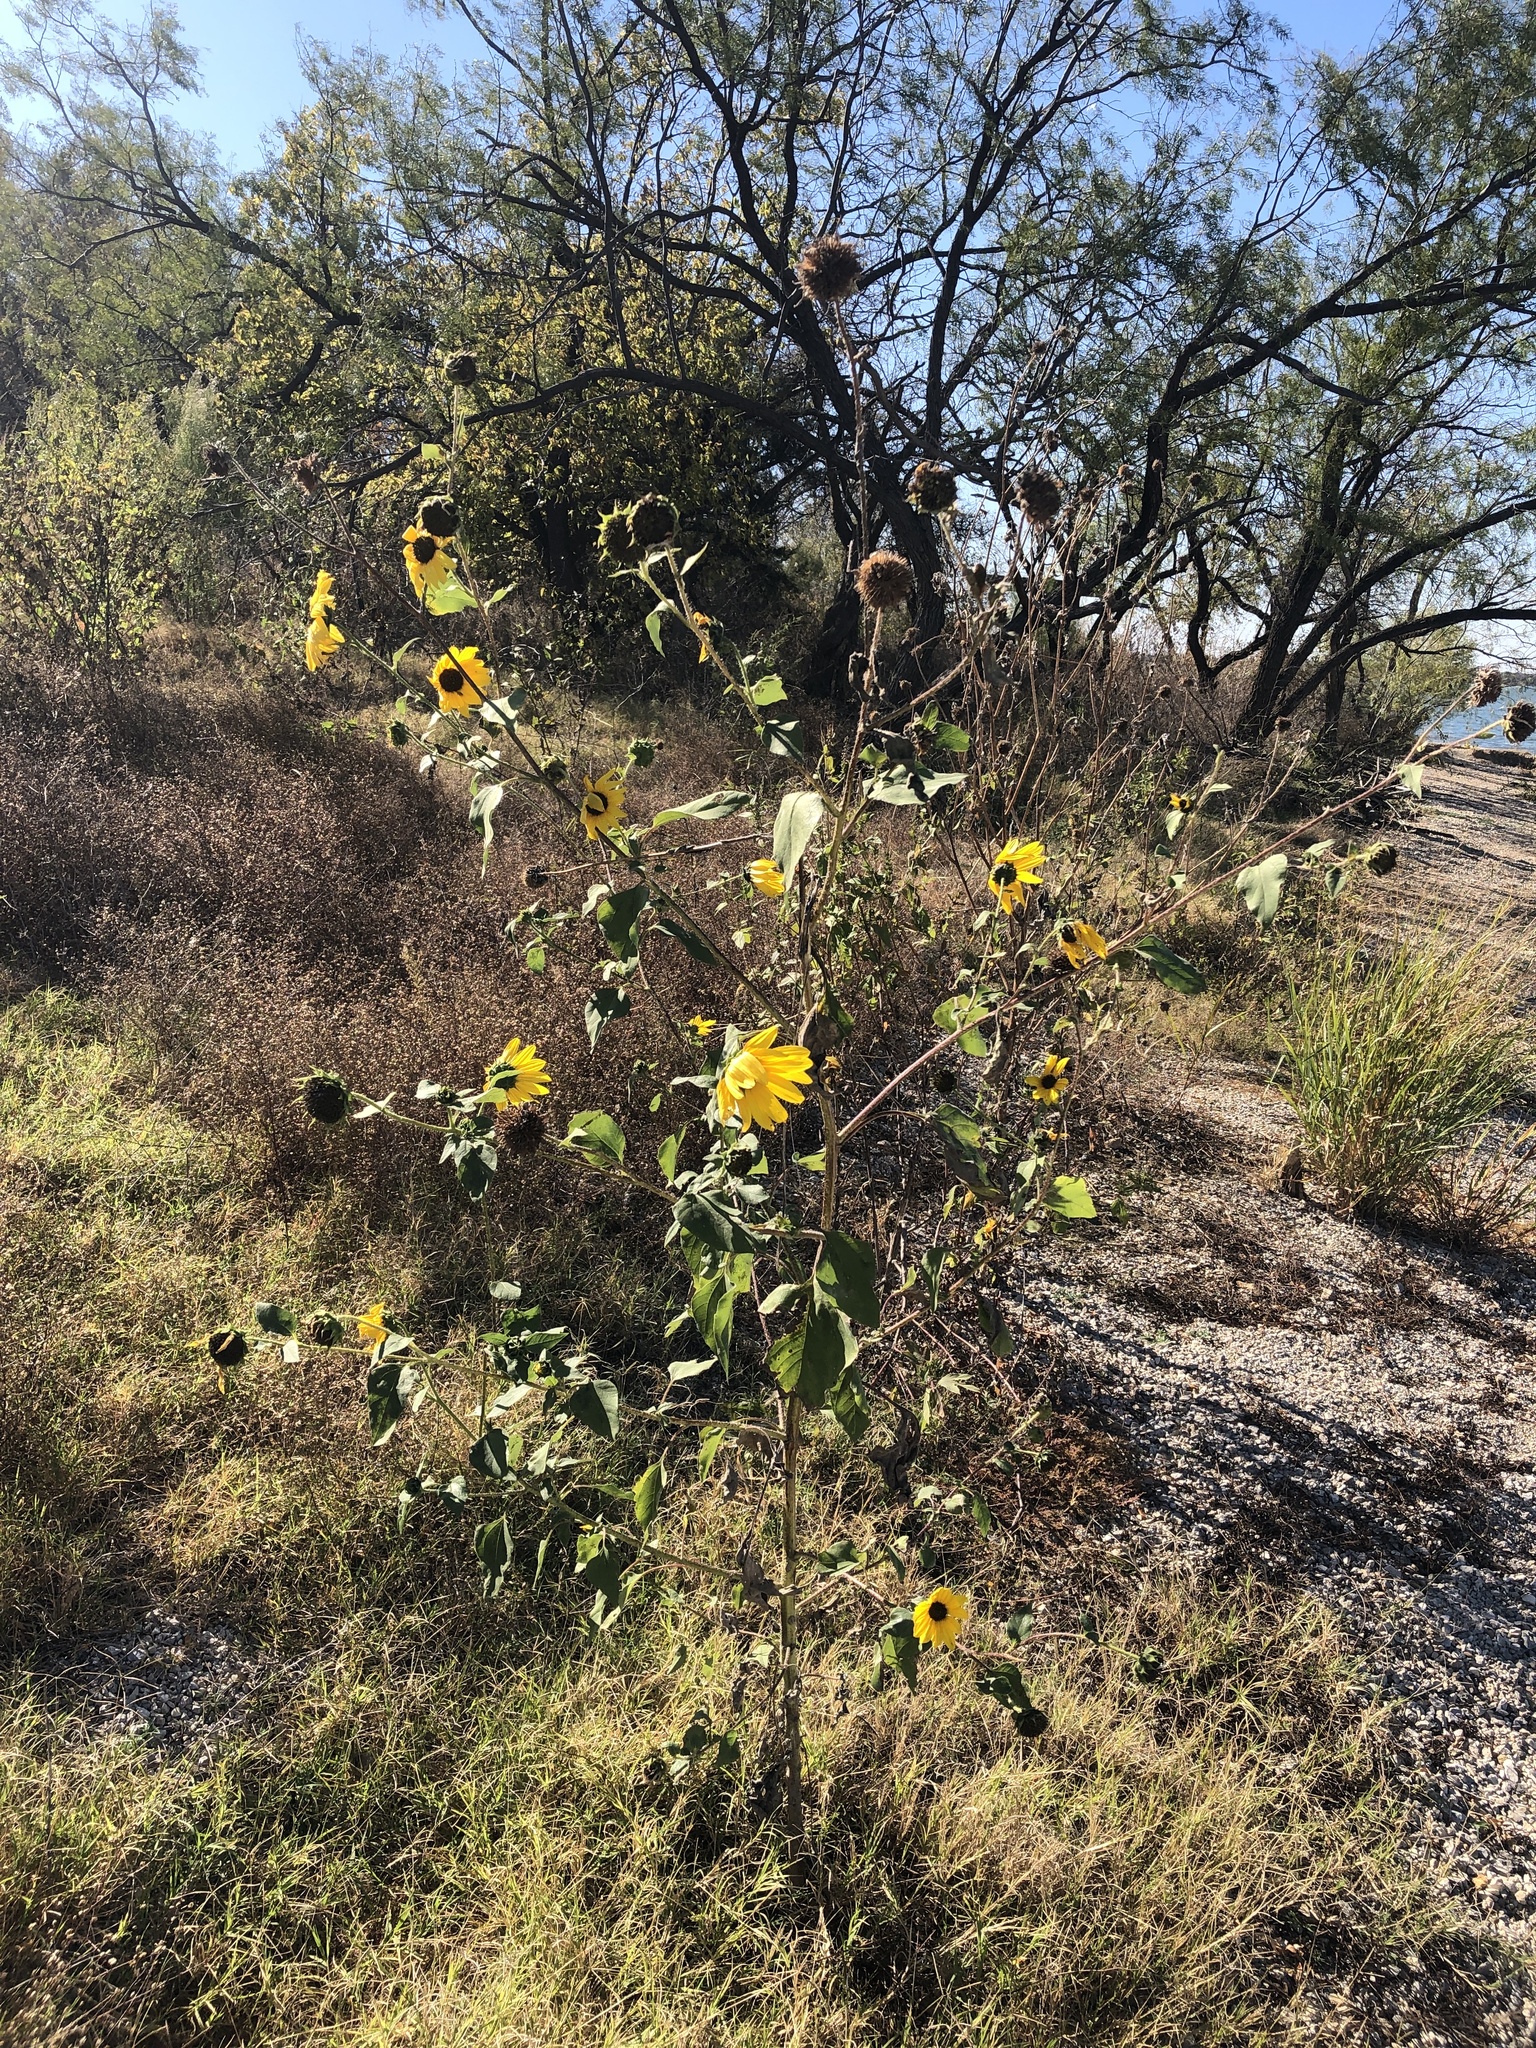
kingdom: Plantae
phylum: Tracheophyta
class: Magnoliopsida
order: Asterales
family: Asteraceae
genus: Helianthus
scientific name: Helianthus annuus
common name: Sunflower
